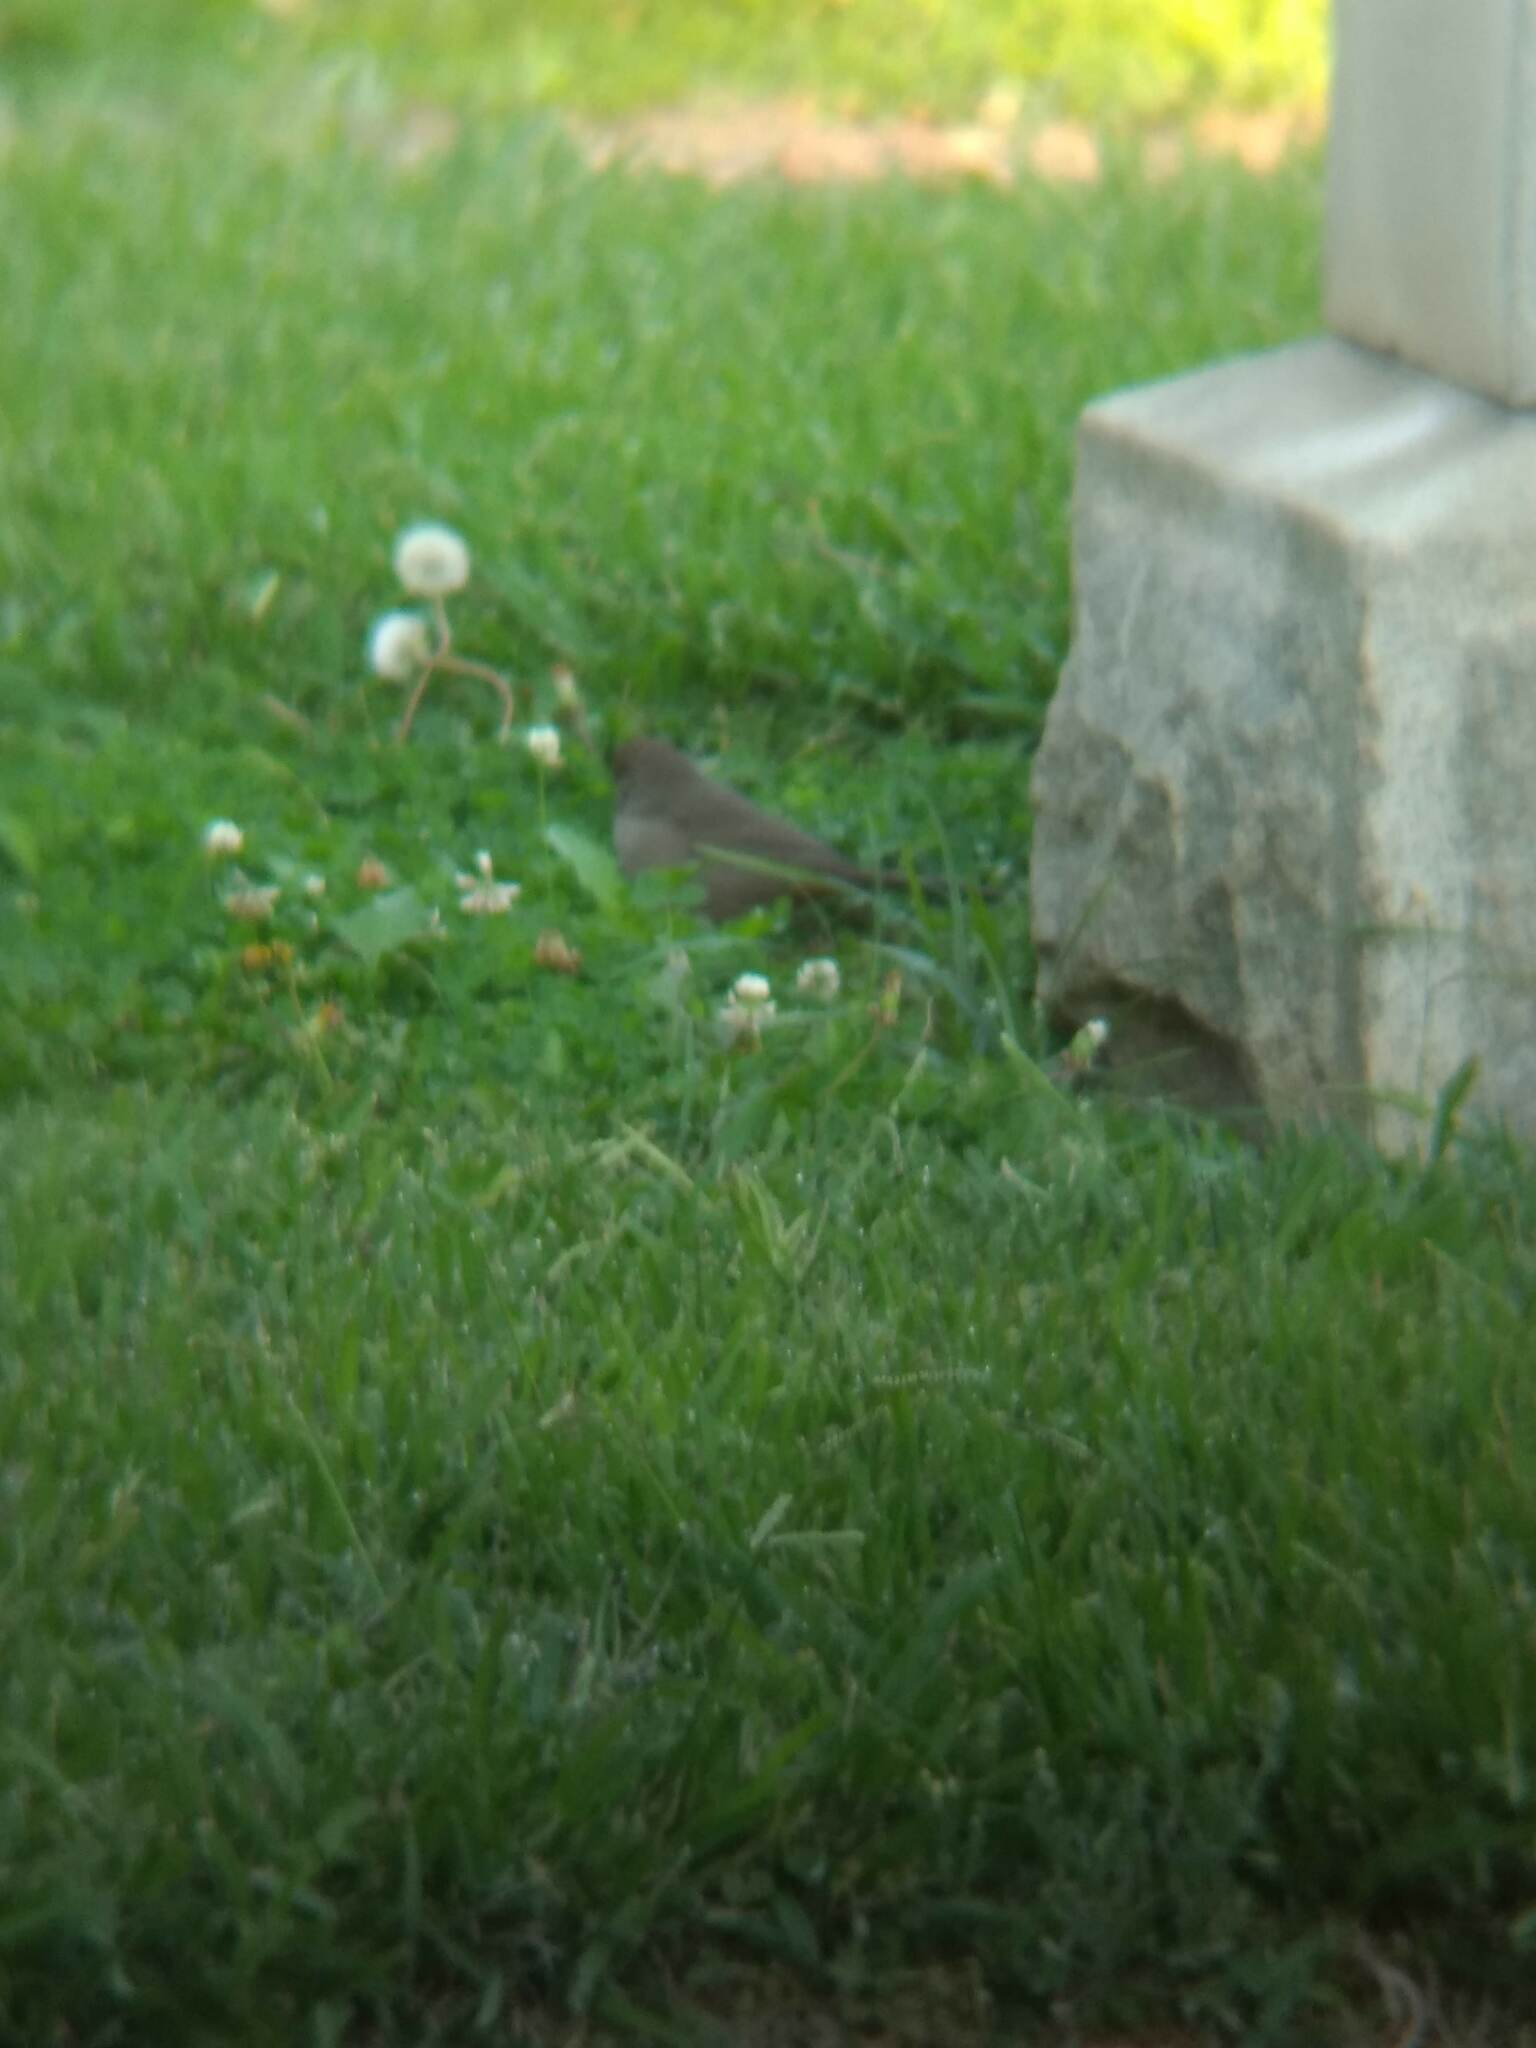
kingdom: Animalia
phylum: Chordata
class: Aves
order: Passeriformes
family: Passerellidae
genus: Melozone
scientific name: Melozone crissalis
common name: California towhee
